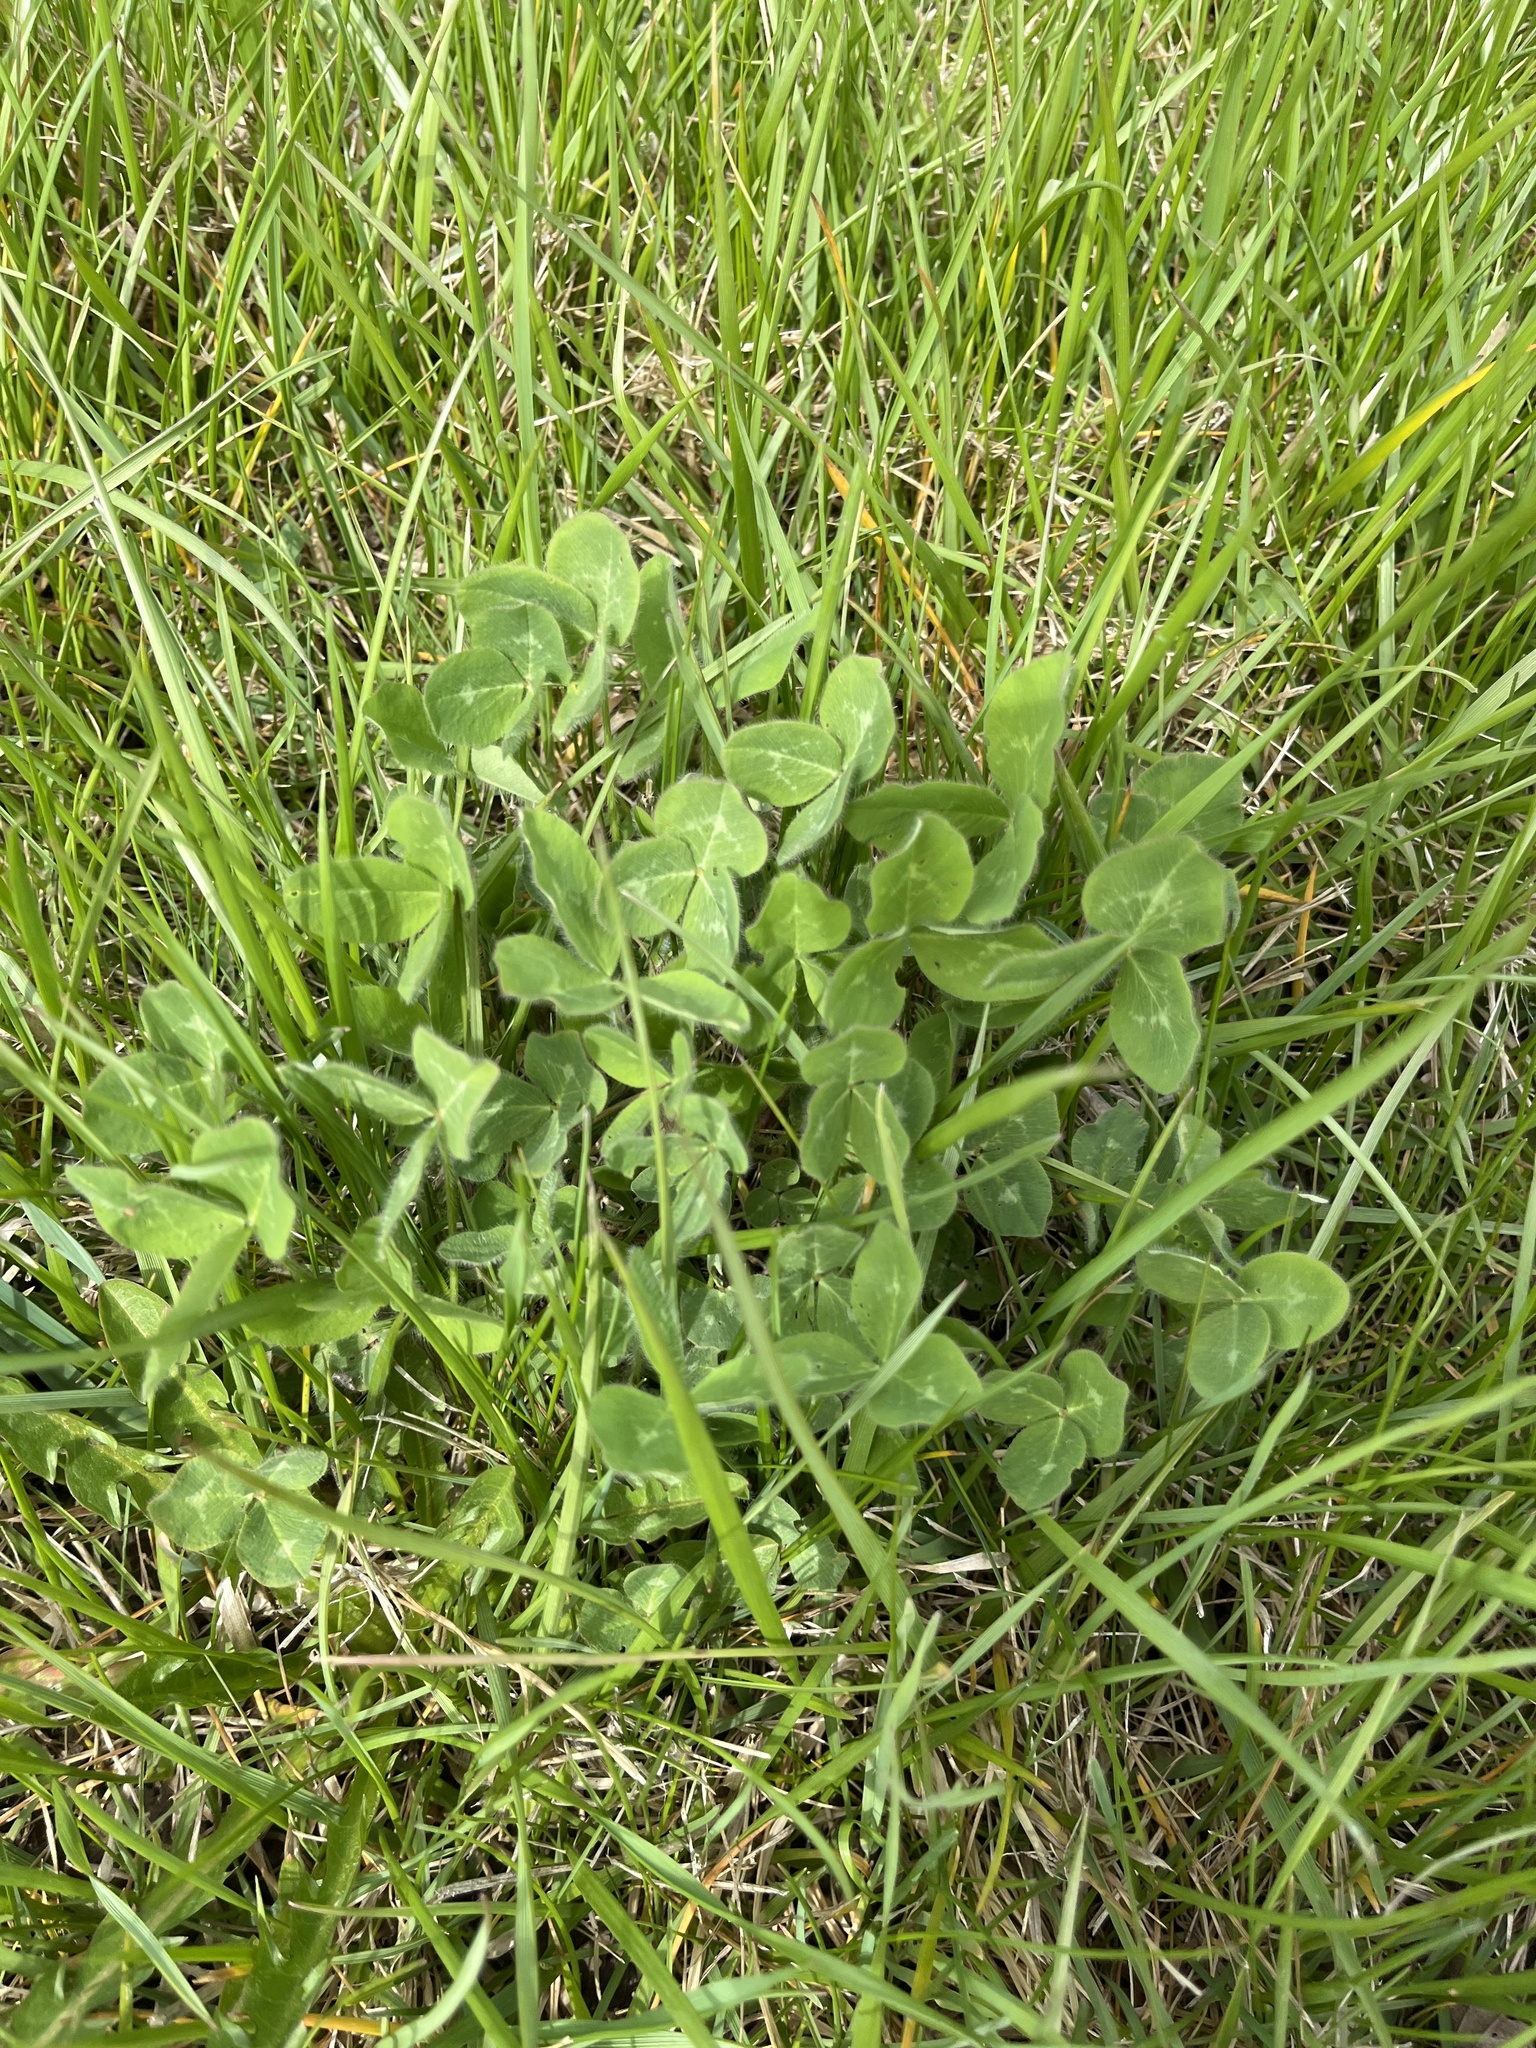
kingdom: Plantae
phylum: Tracheophyta
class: Magnoliopsida
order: Fabales
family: Fabaceae
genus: Trifolium
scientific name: Trifolium pratense
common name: Red clover
